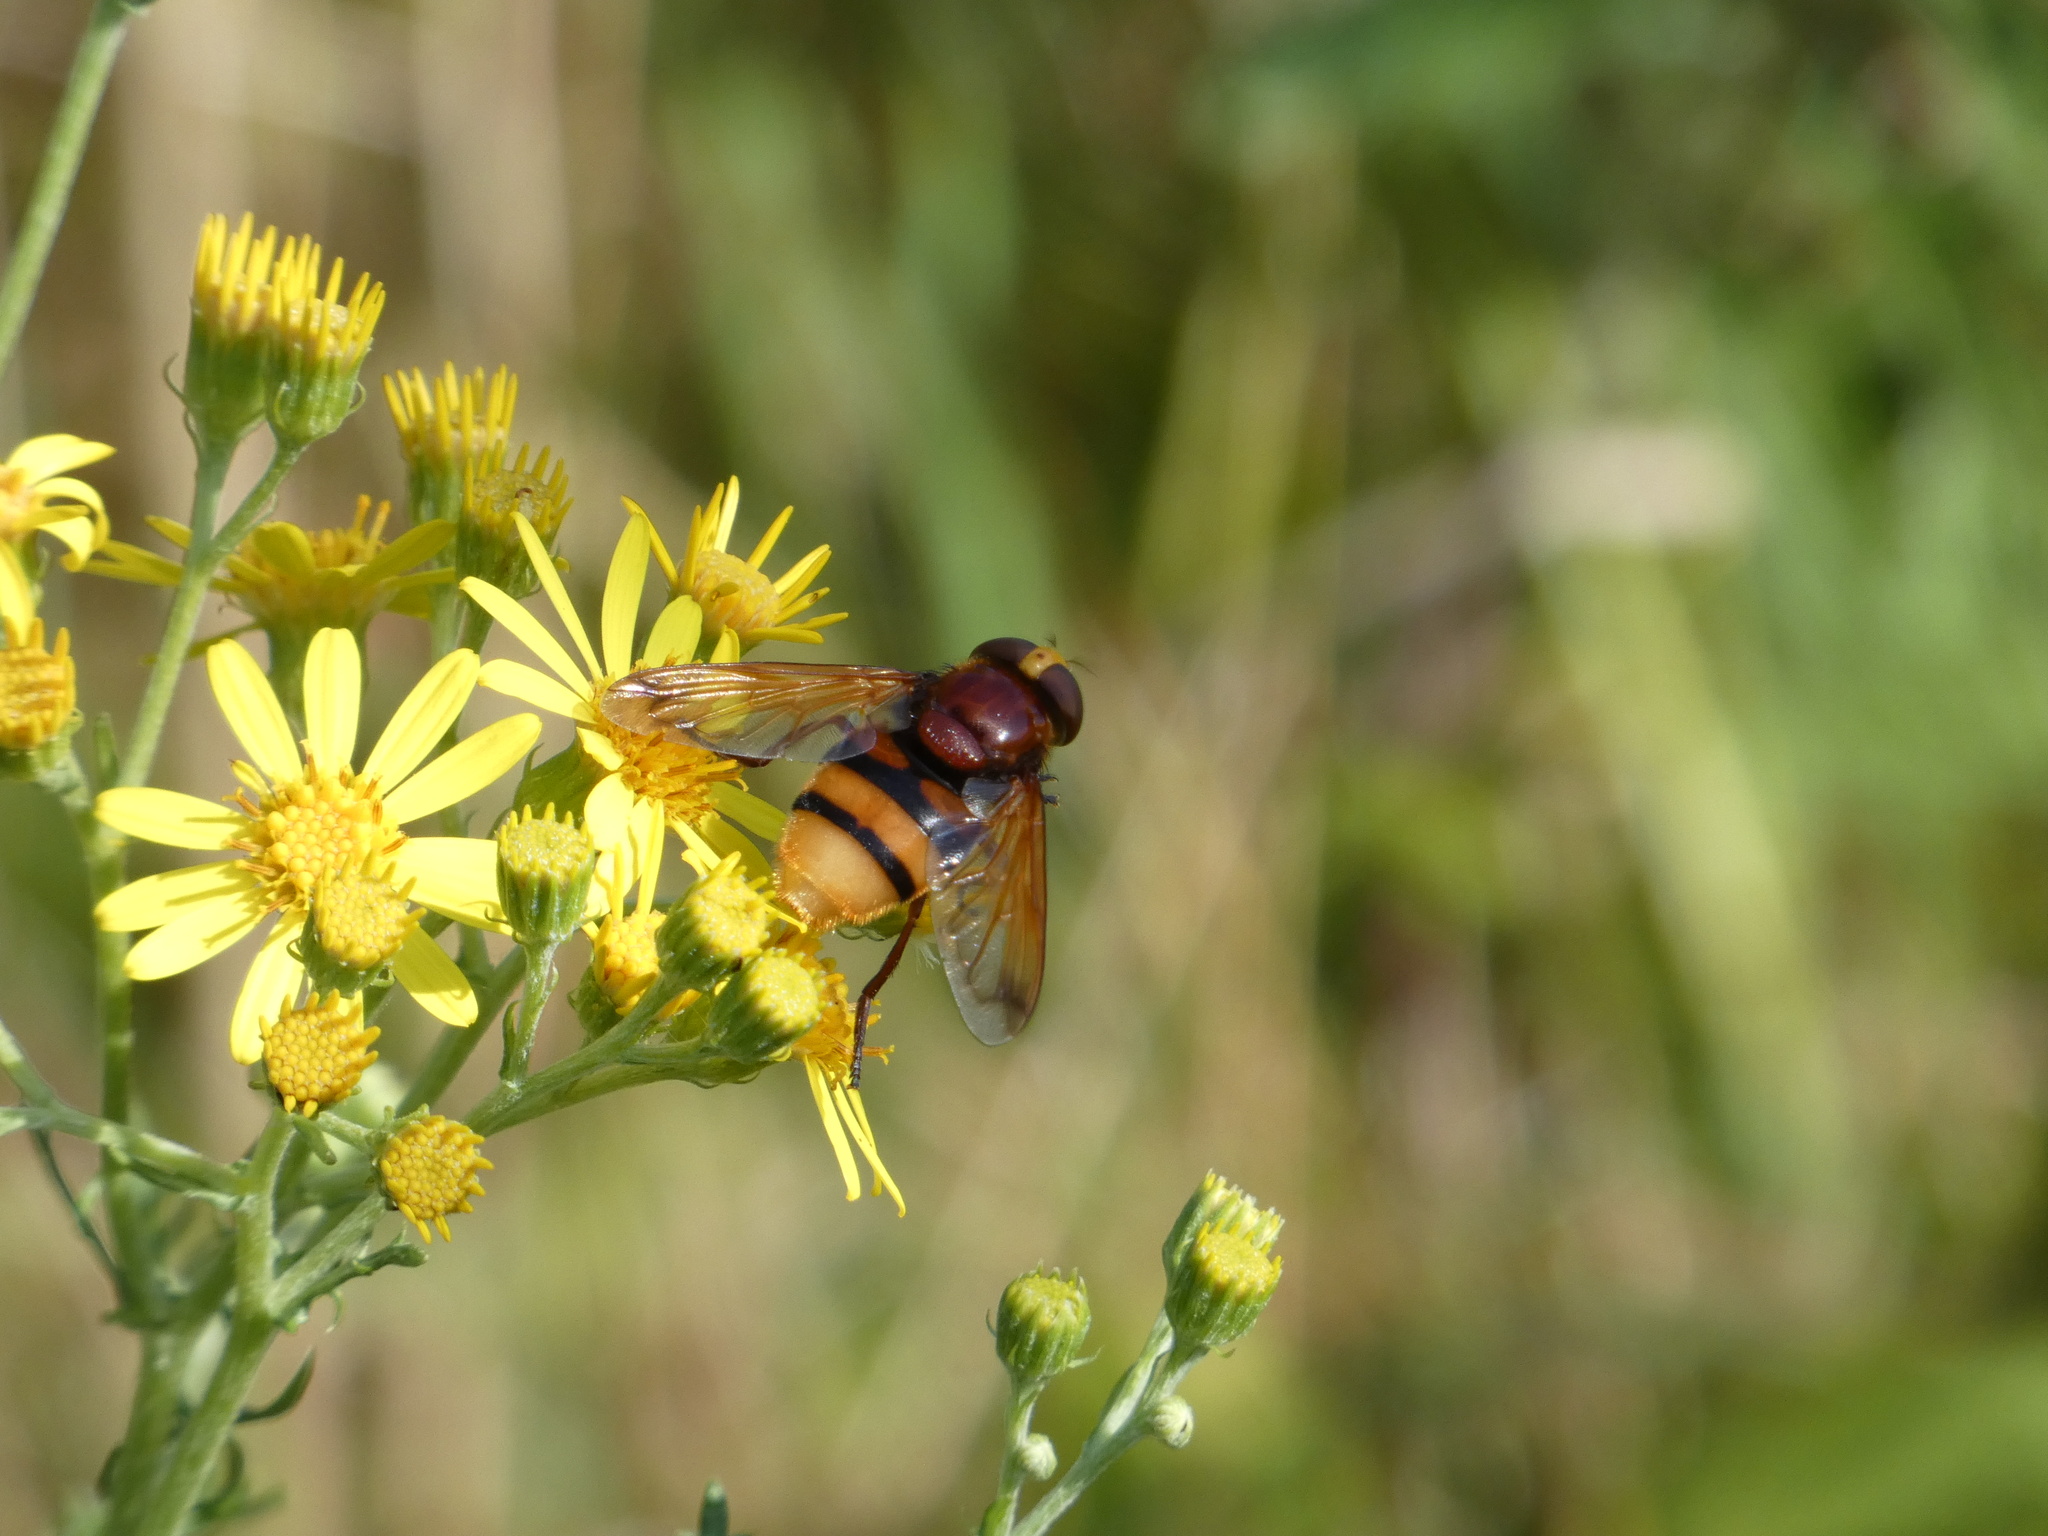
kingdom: Animalia
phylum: Arthropoda
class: Insecta
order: Diptera
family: Syrphidae
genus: Volucella
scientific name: Volucella zonaria
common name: Hornet hoverfly
